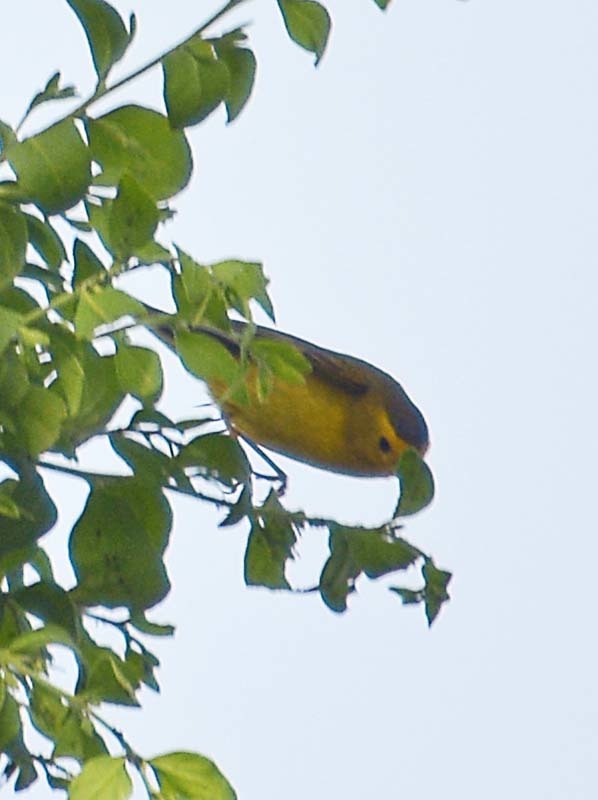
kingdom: Animalia
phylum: Chordata
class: Aves
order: Passeriformes
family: Parulidae
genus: Cardellina
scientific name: Cardellina pusilla
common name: Wilson's warbler
